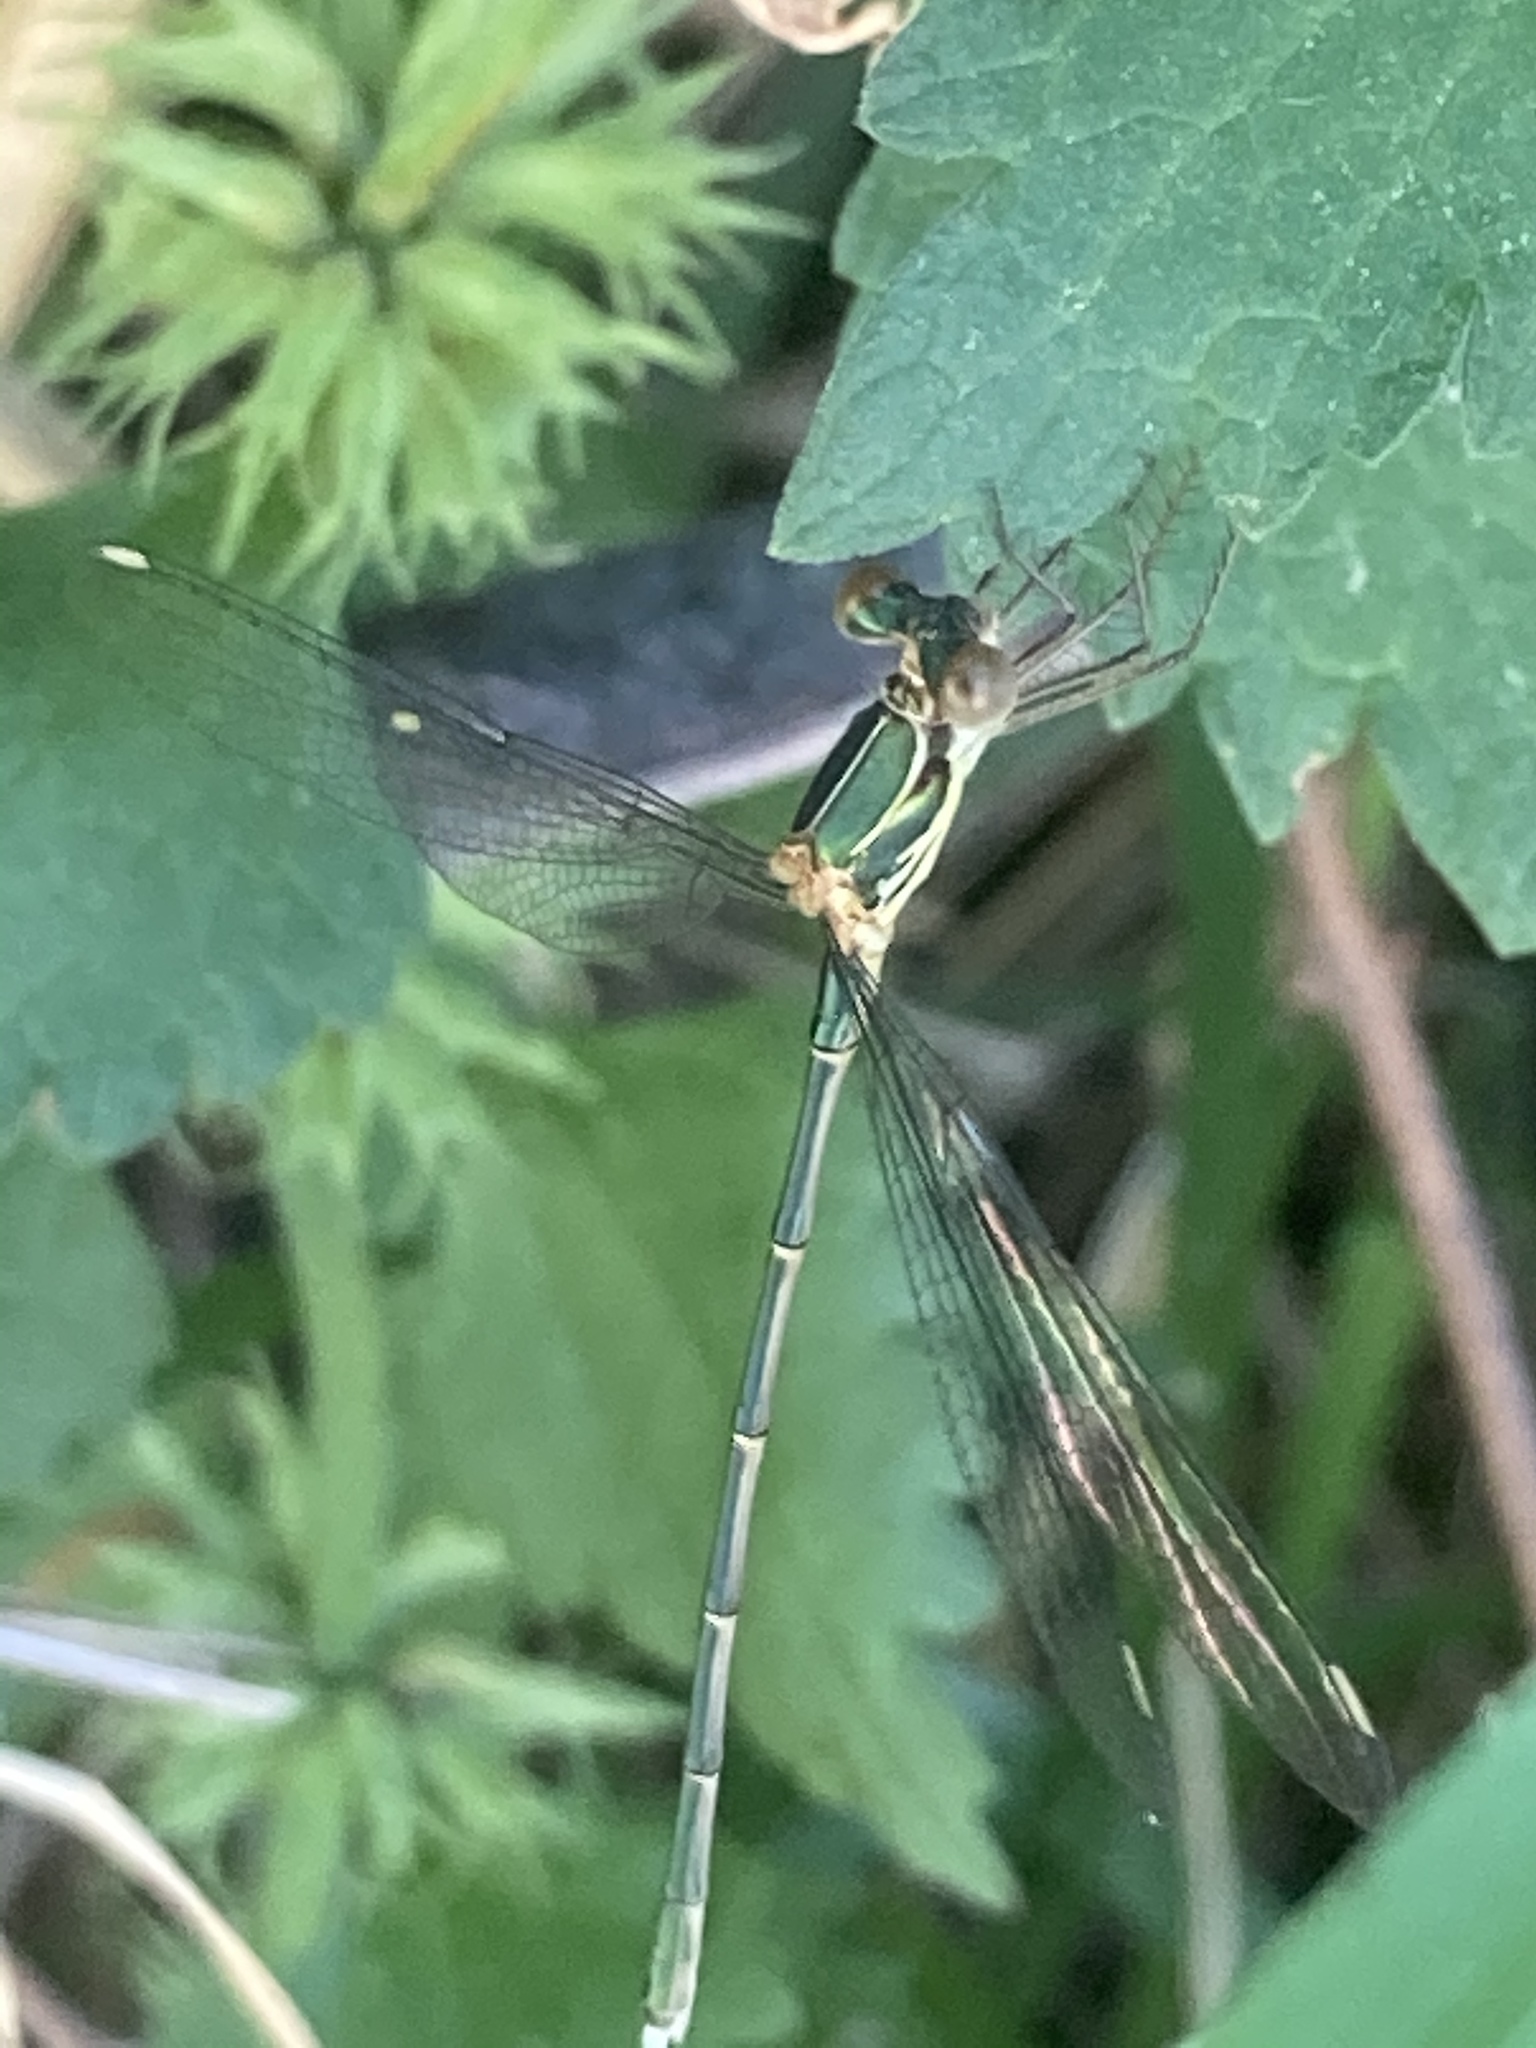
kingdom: Animalia
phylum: Arthropoda
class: Insecta
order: Odonata
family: Lestidae
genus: Chalcolestes
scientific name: Chalcolestes parvidens
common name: Eastern willow spreadwing
